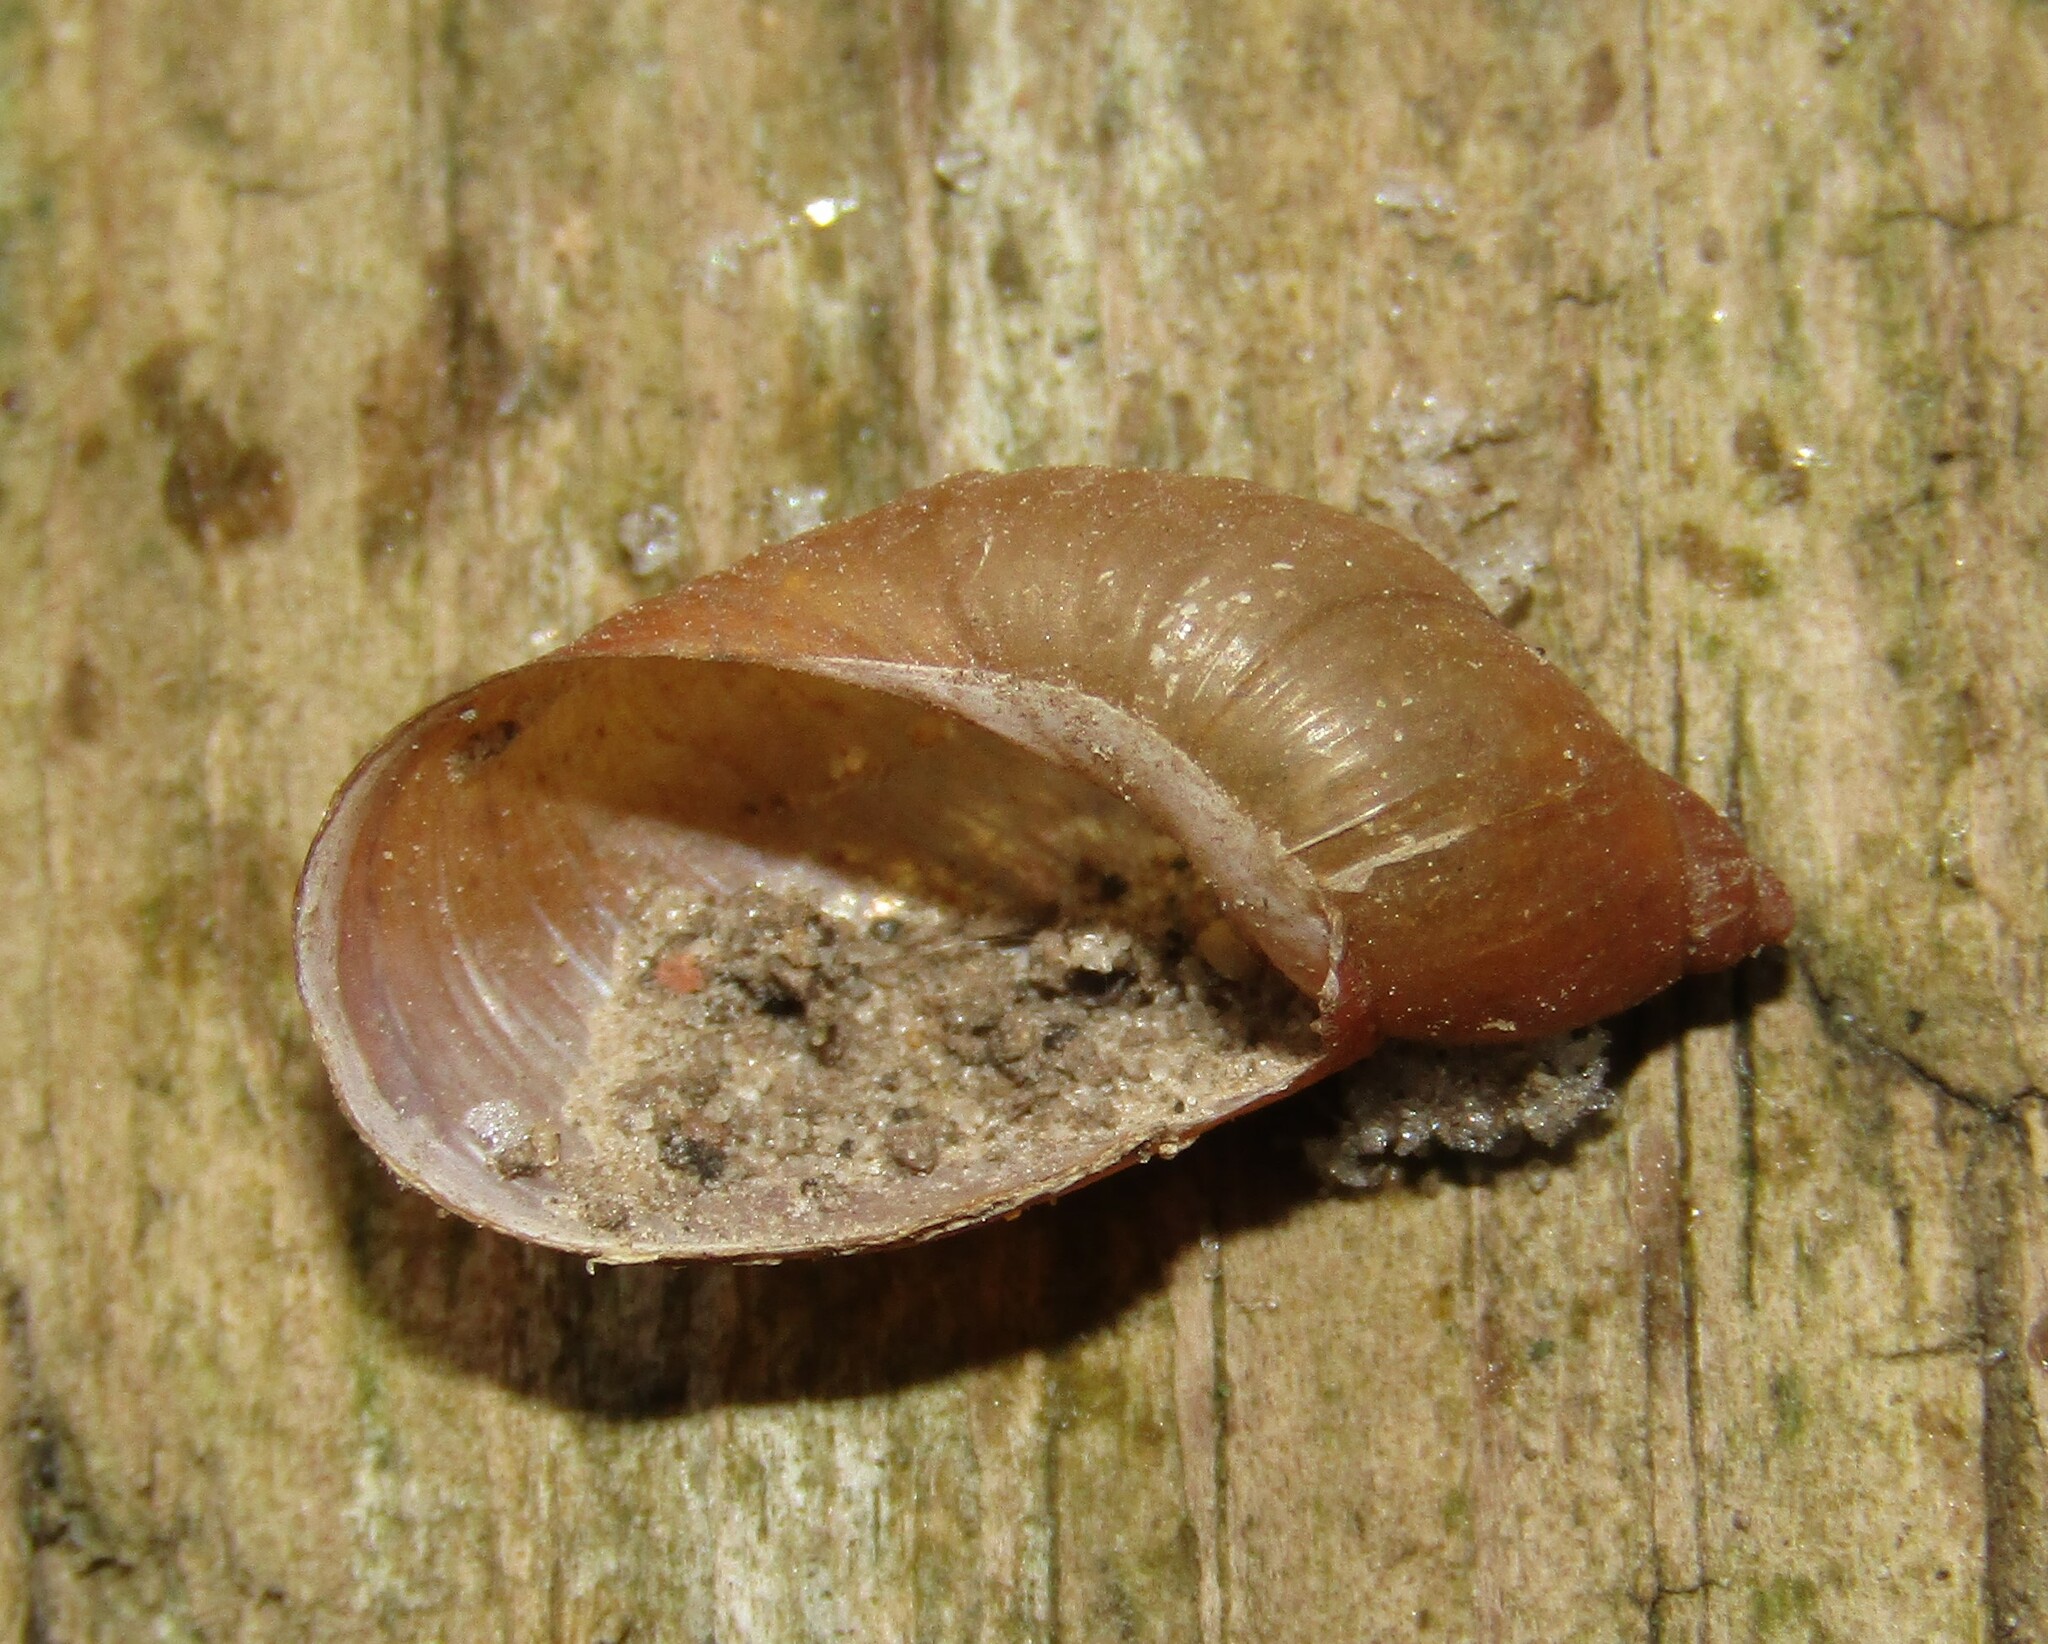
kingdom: Animalia
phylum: Mollusca
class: Gastropoda
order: Stylommatophora
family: Succineidae
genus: Succinea
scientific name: Succinea putris
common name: European ambersnail
